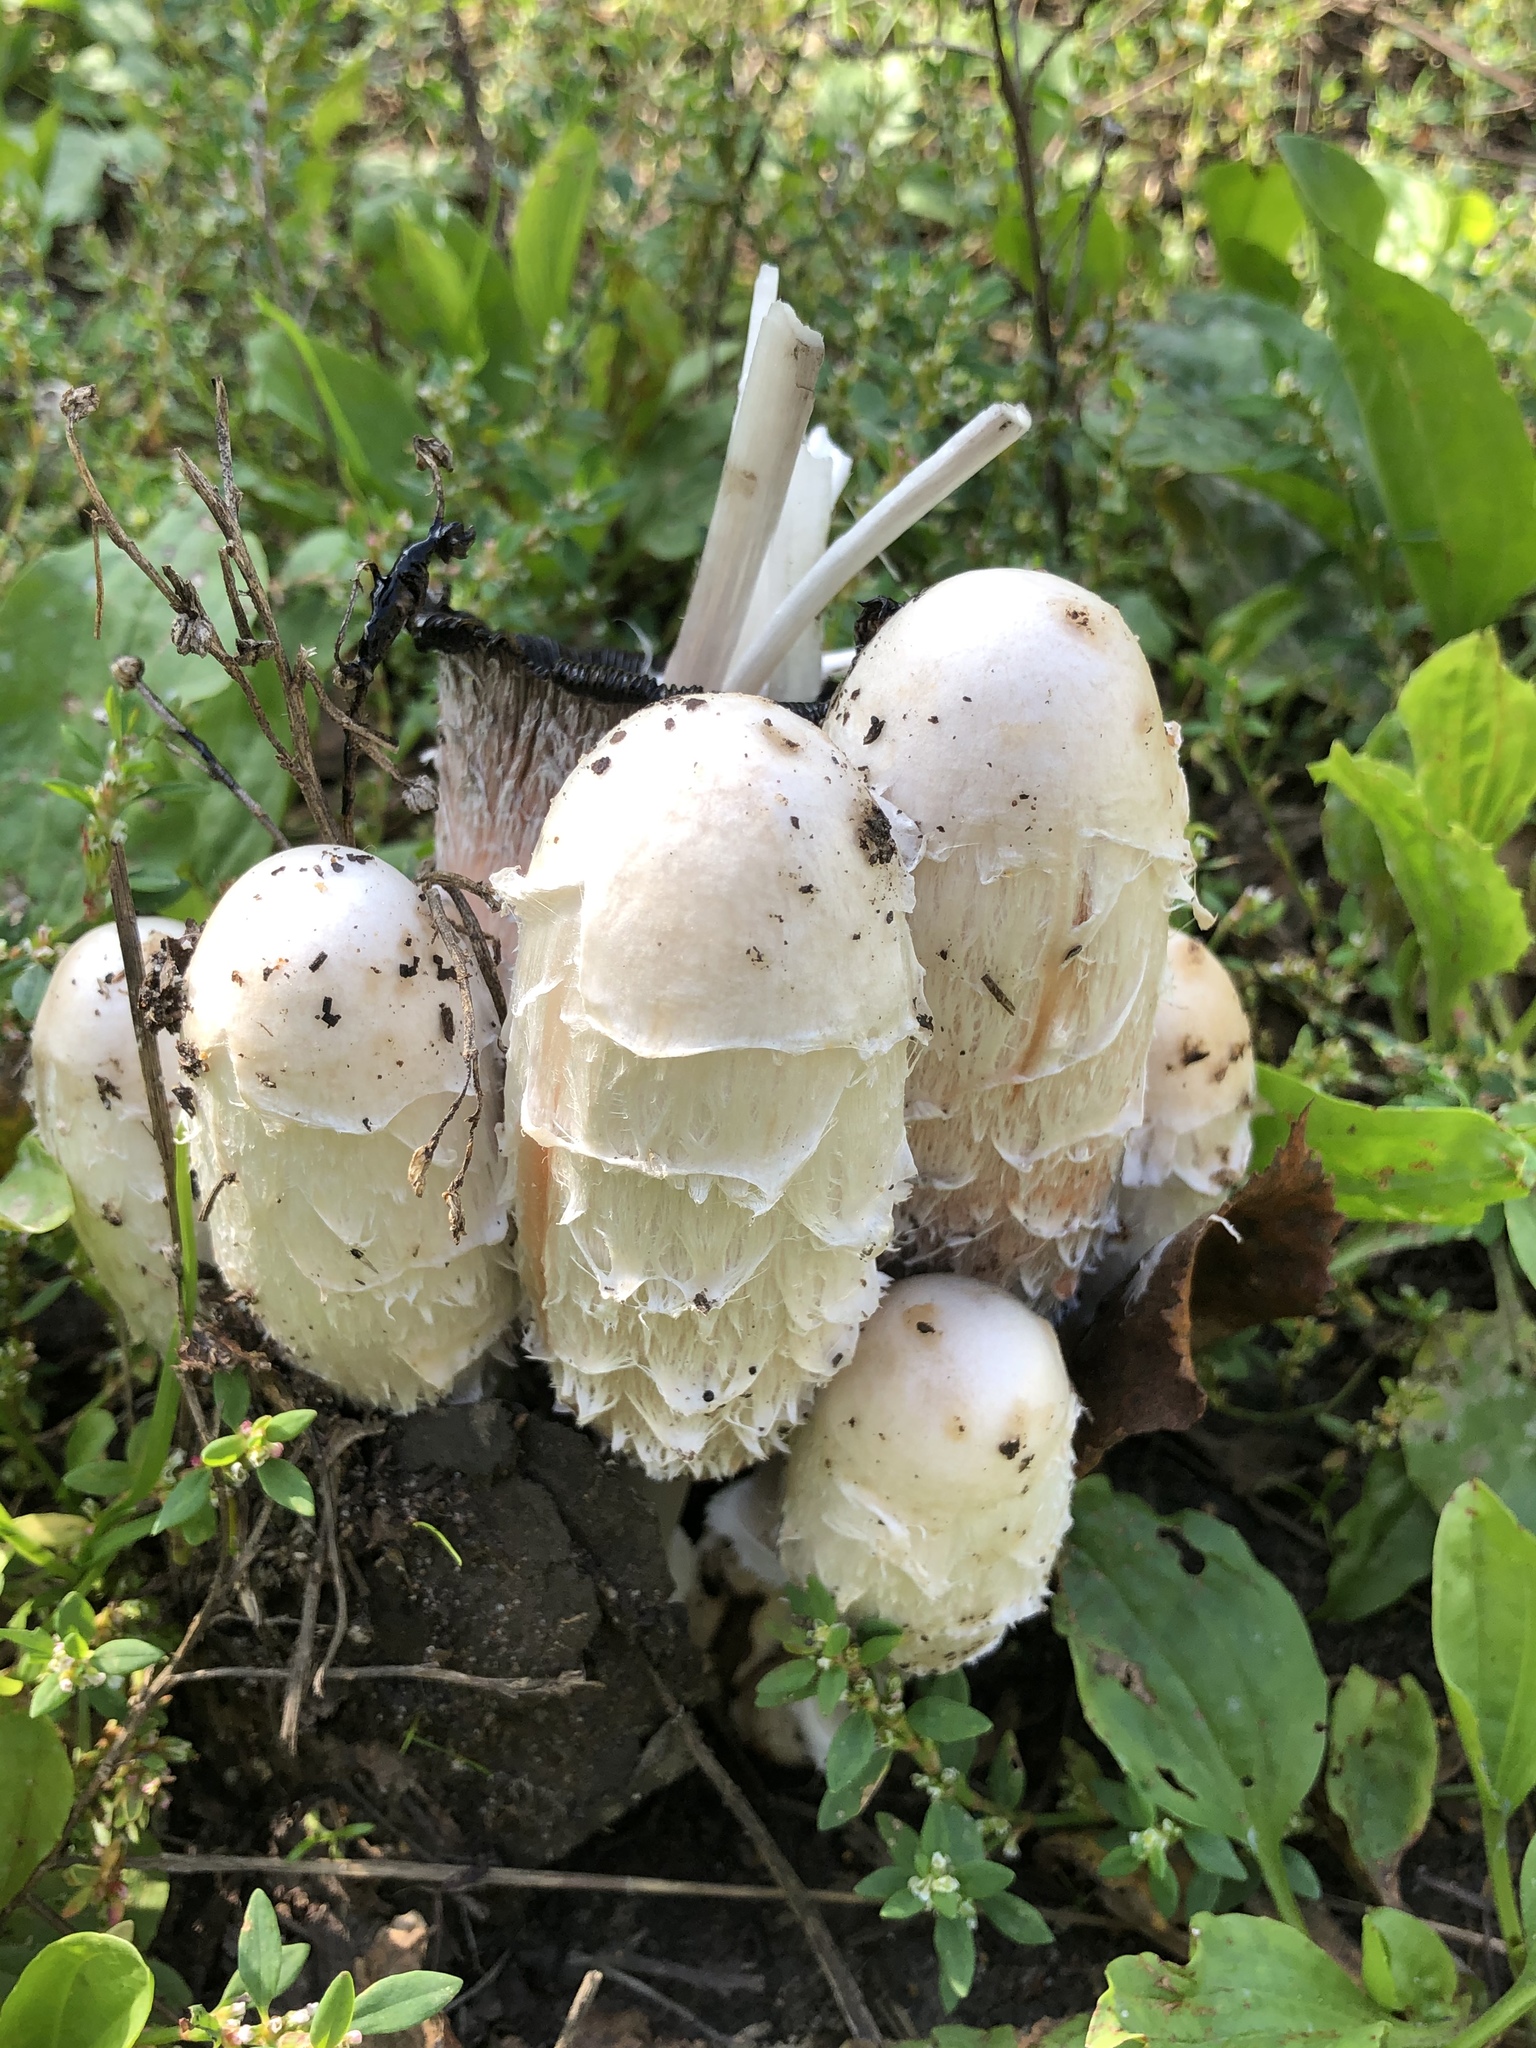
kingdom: Fungi
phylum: Basidiomycota
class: Agaricomycetes
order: Agaricales
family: Agaricaceae
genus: Coprinus
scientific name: Coprinus comatus
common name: Lawyer's wig
